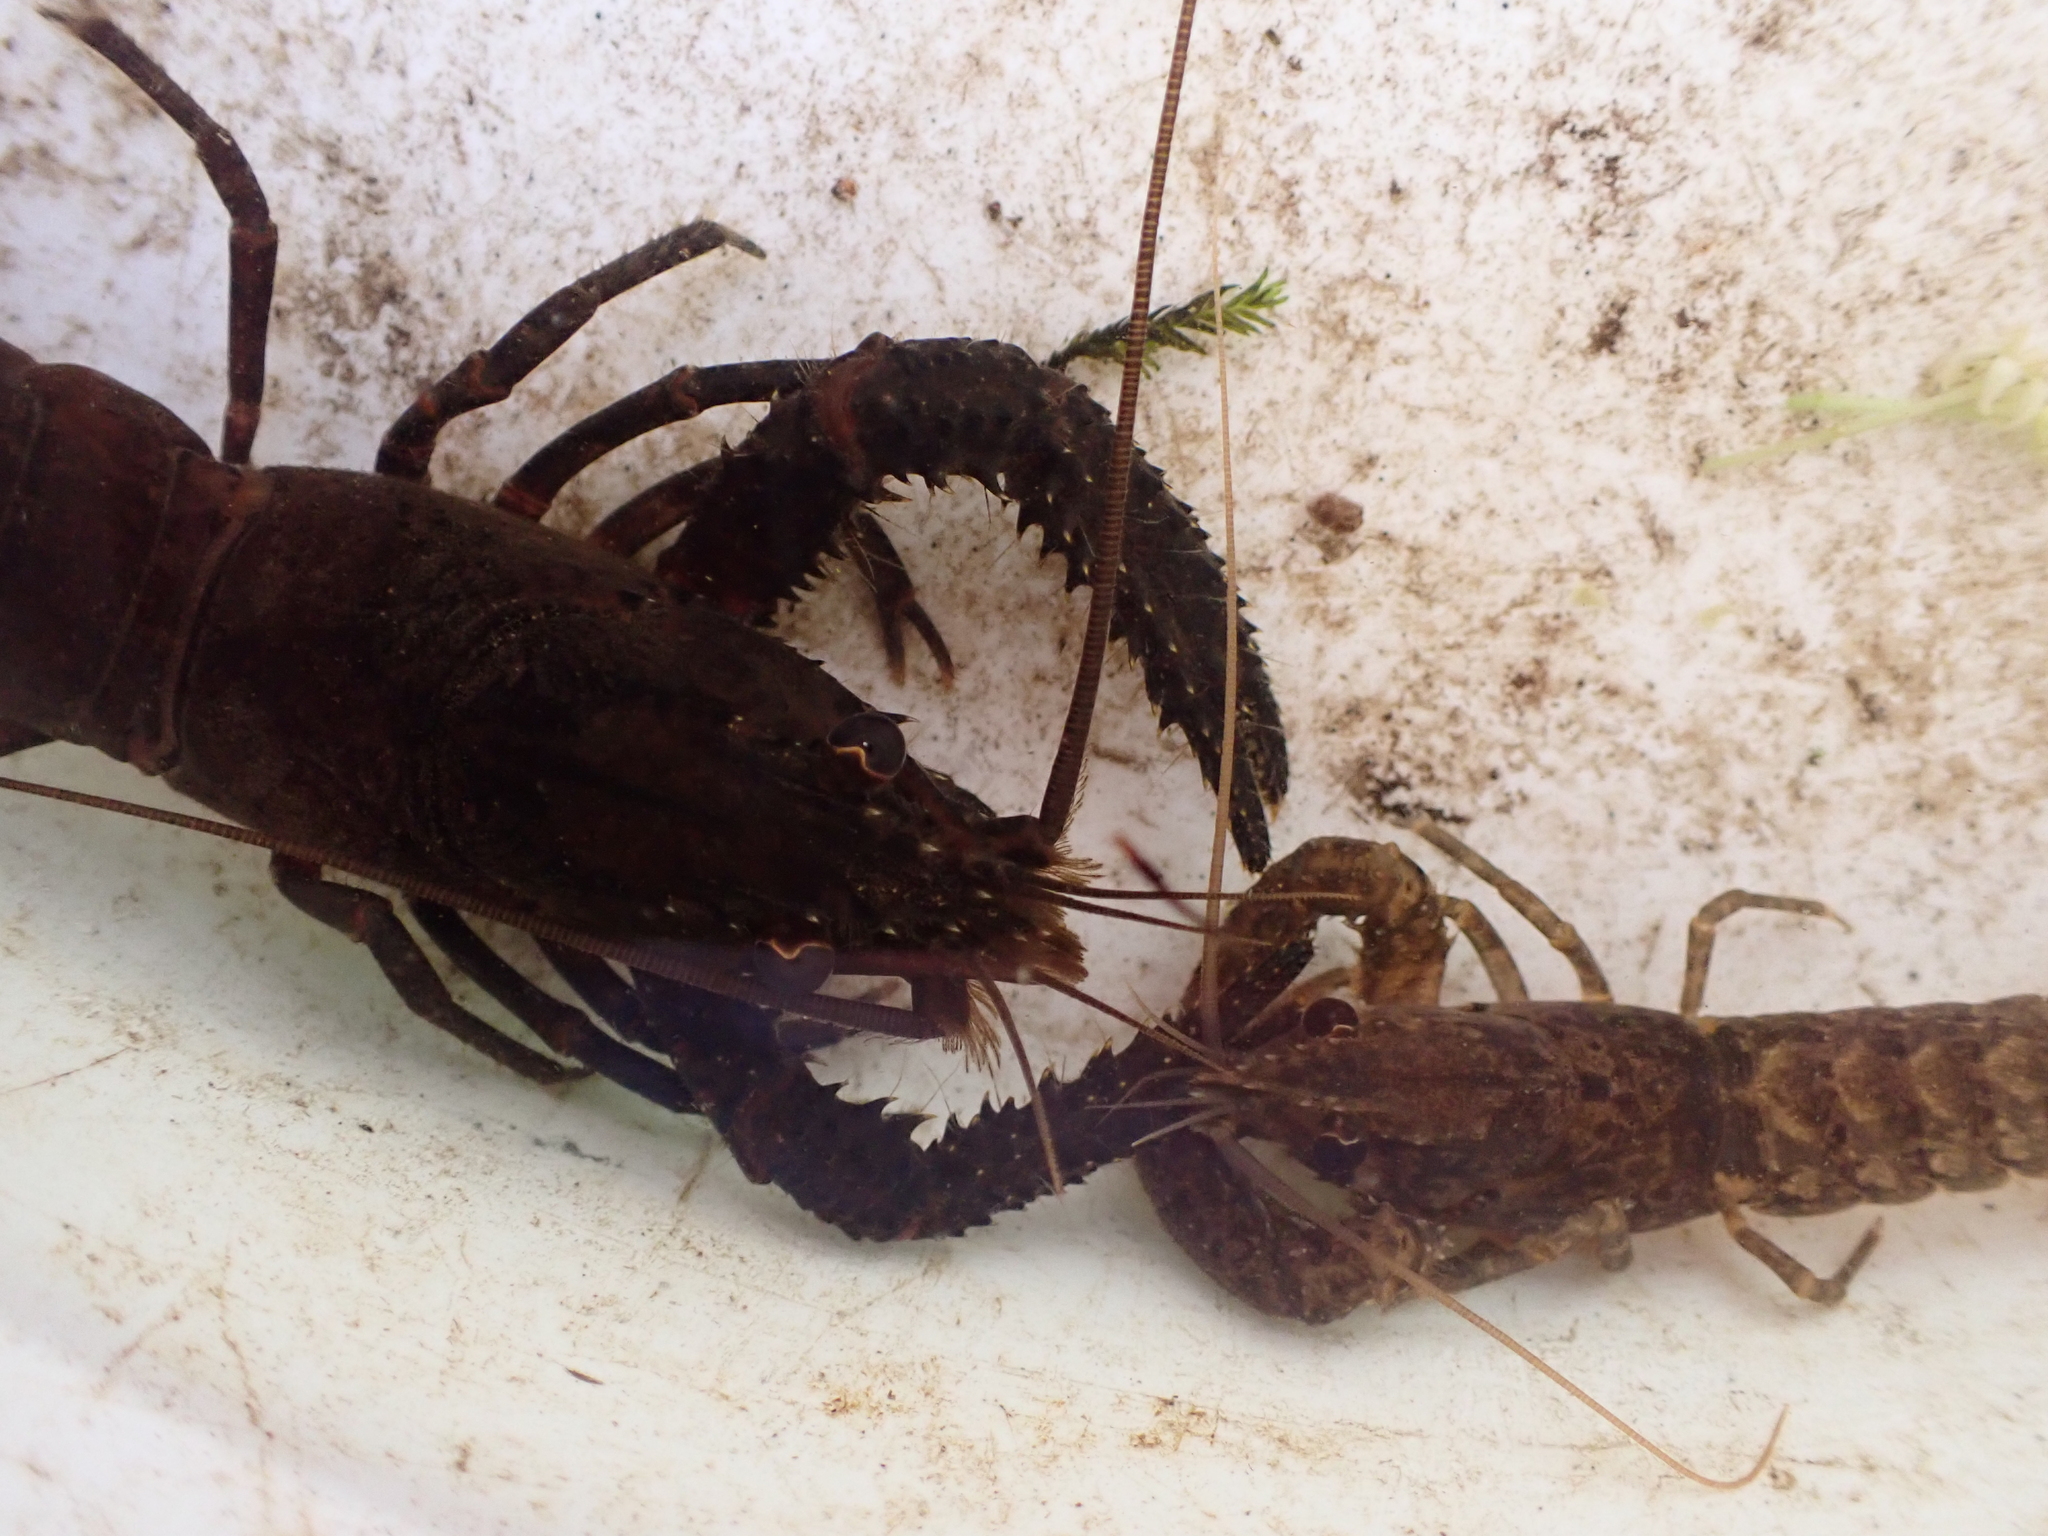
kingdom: Animalia
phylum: Arthropoda
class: Malacostraca
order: Decapoda
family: Parastacidae
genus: Paranephrops
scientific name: Paranephrops planifrons
